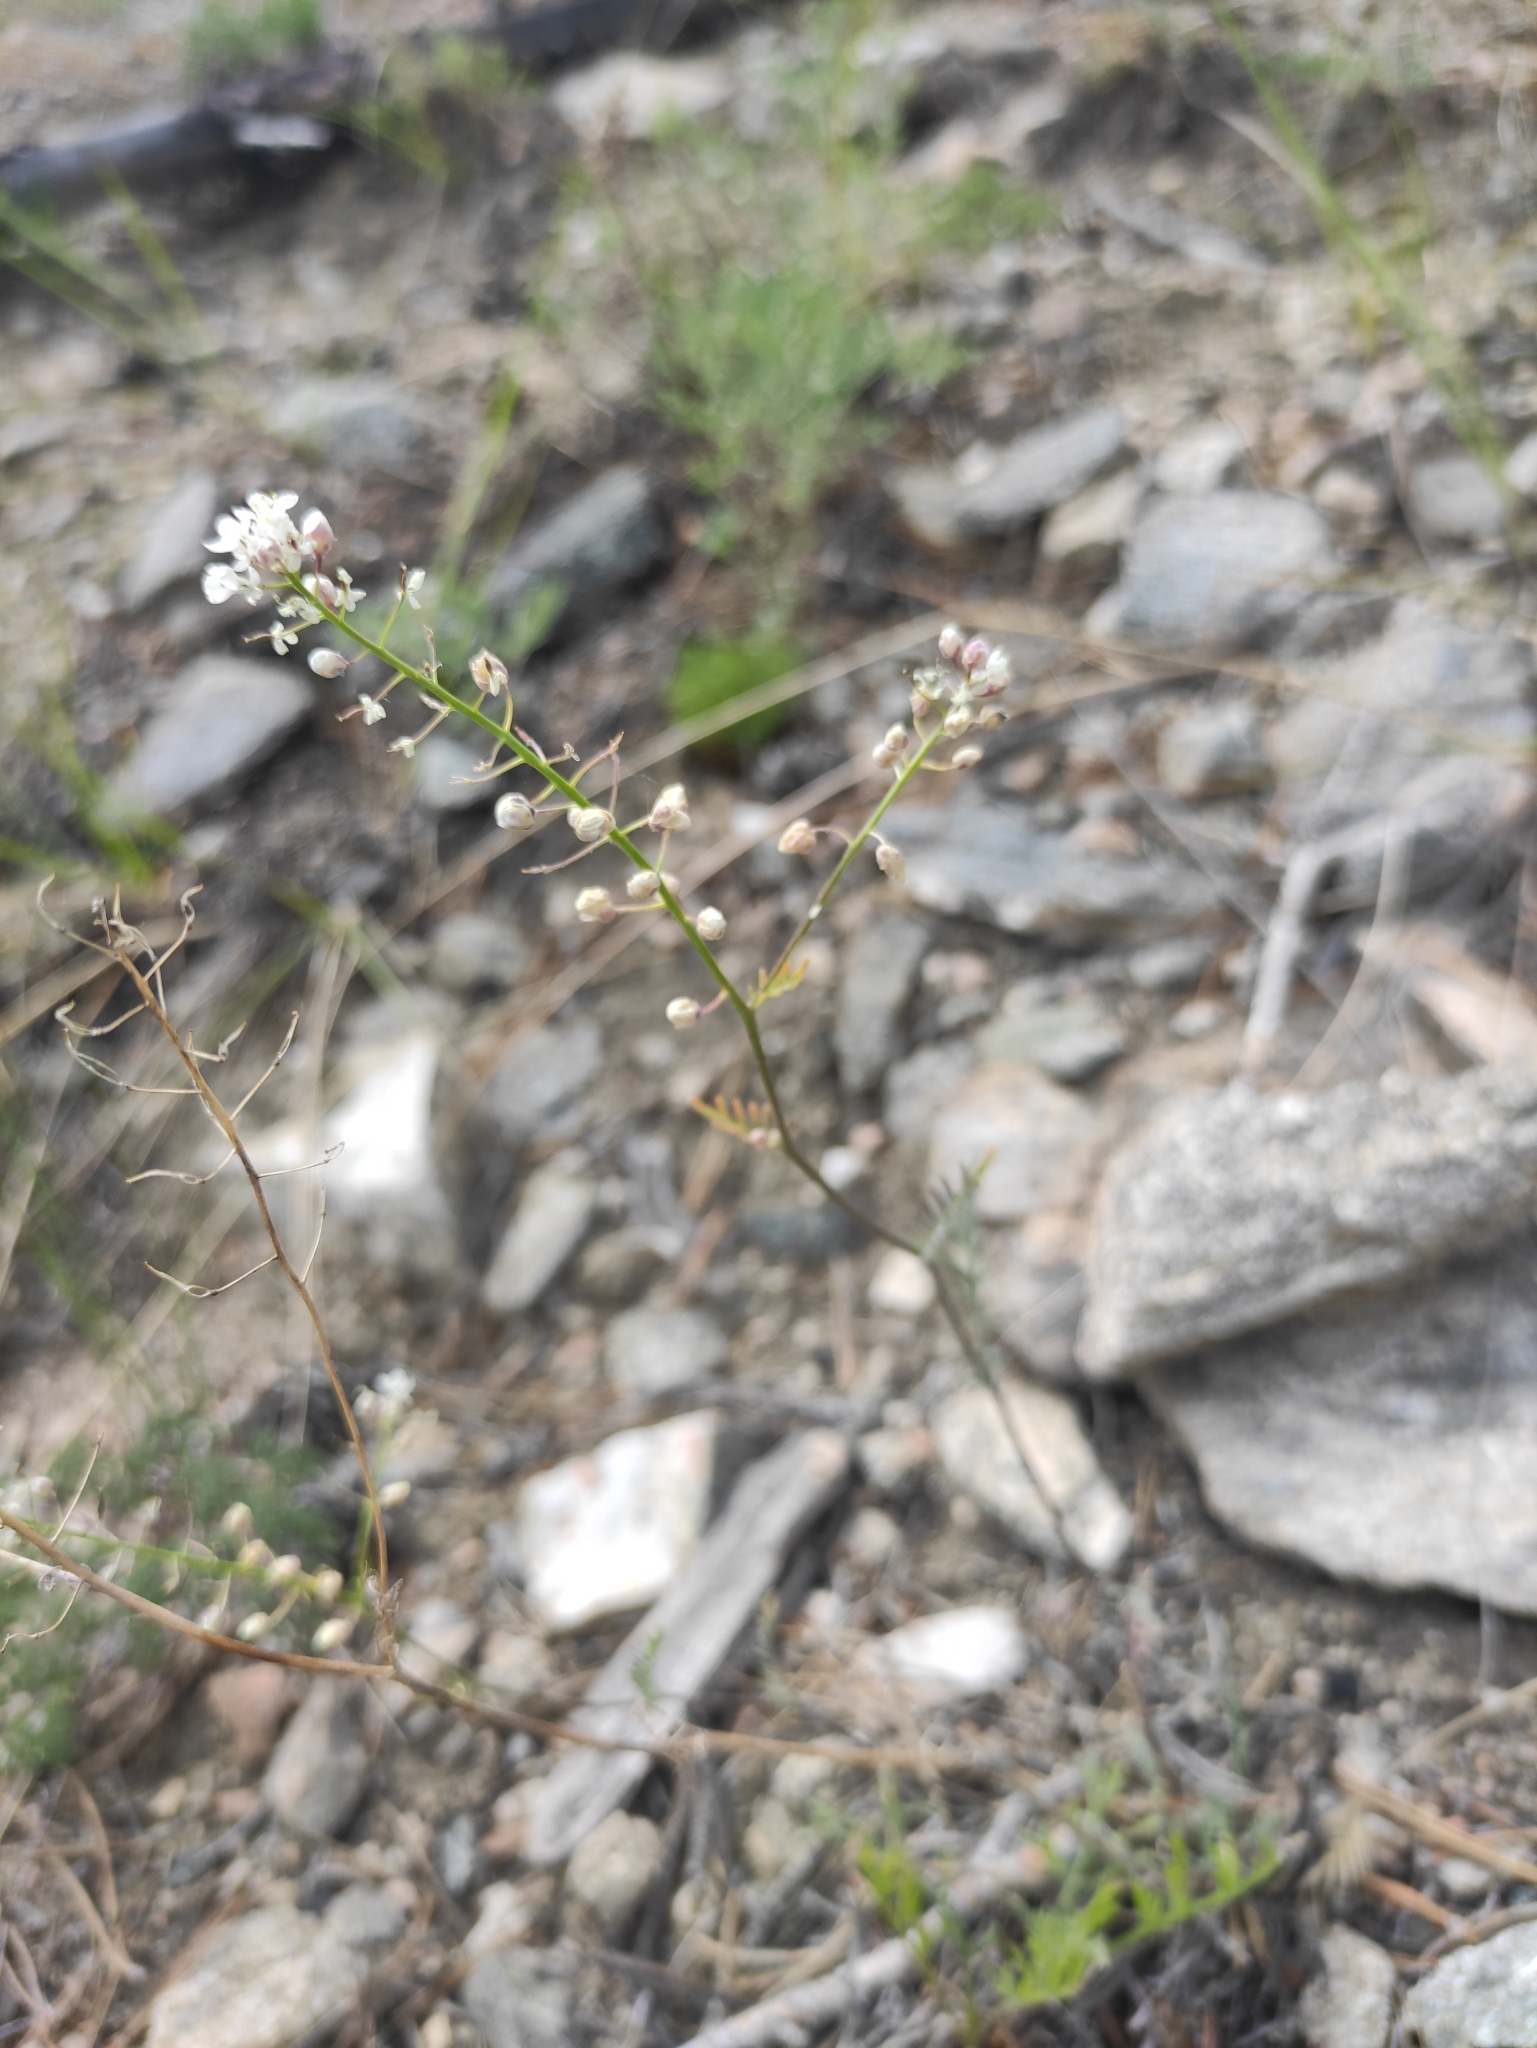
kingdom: Plantae
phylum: Tracheophyta
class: Magnoliopsida
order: Brassicales
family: Brassicaceae
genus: Eutrema
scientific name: Eutrema salsugineum
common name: Mouse-ear cress
